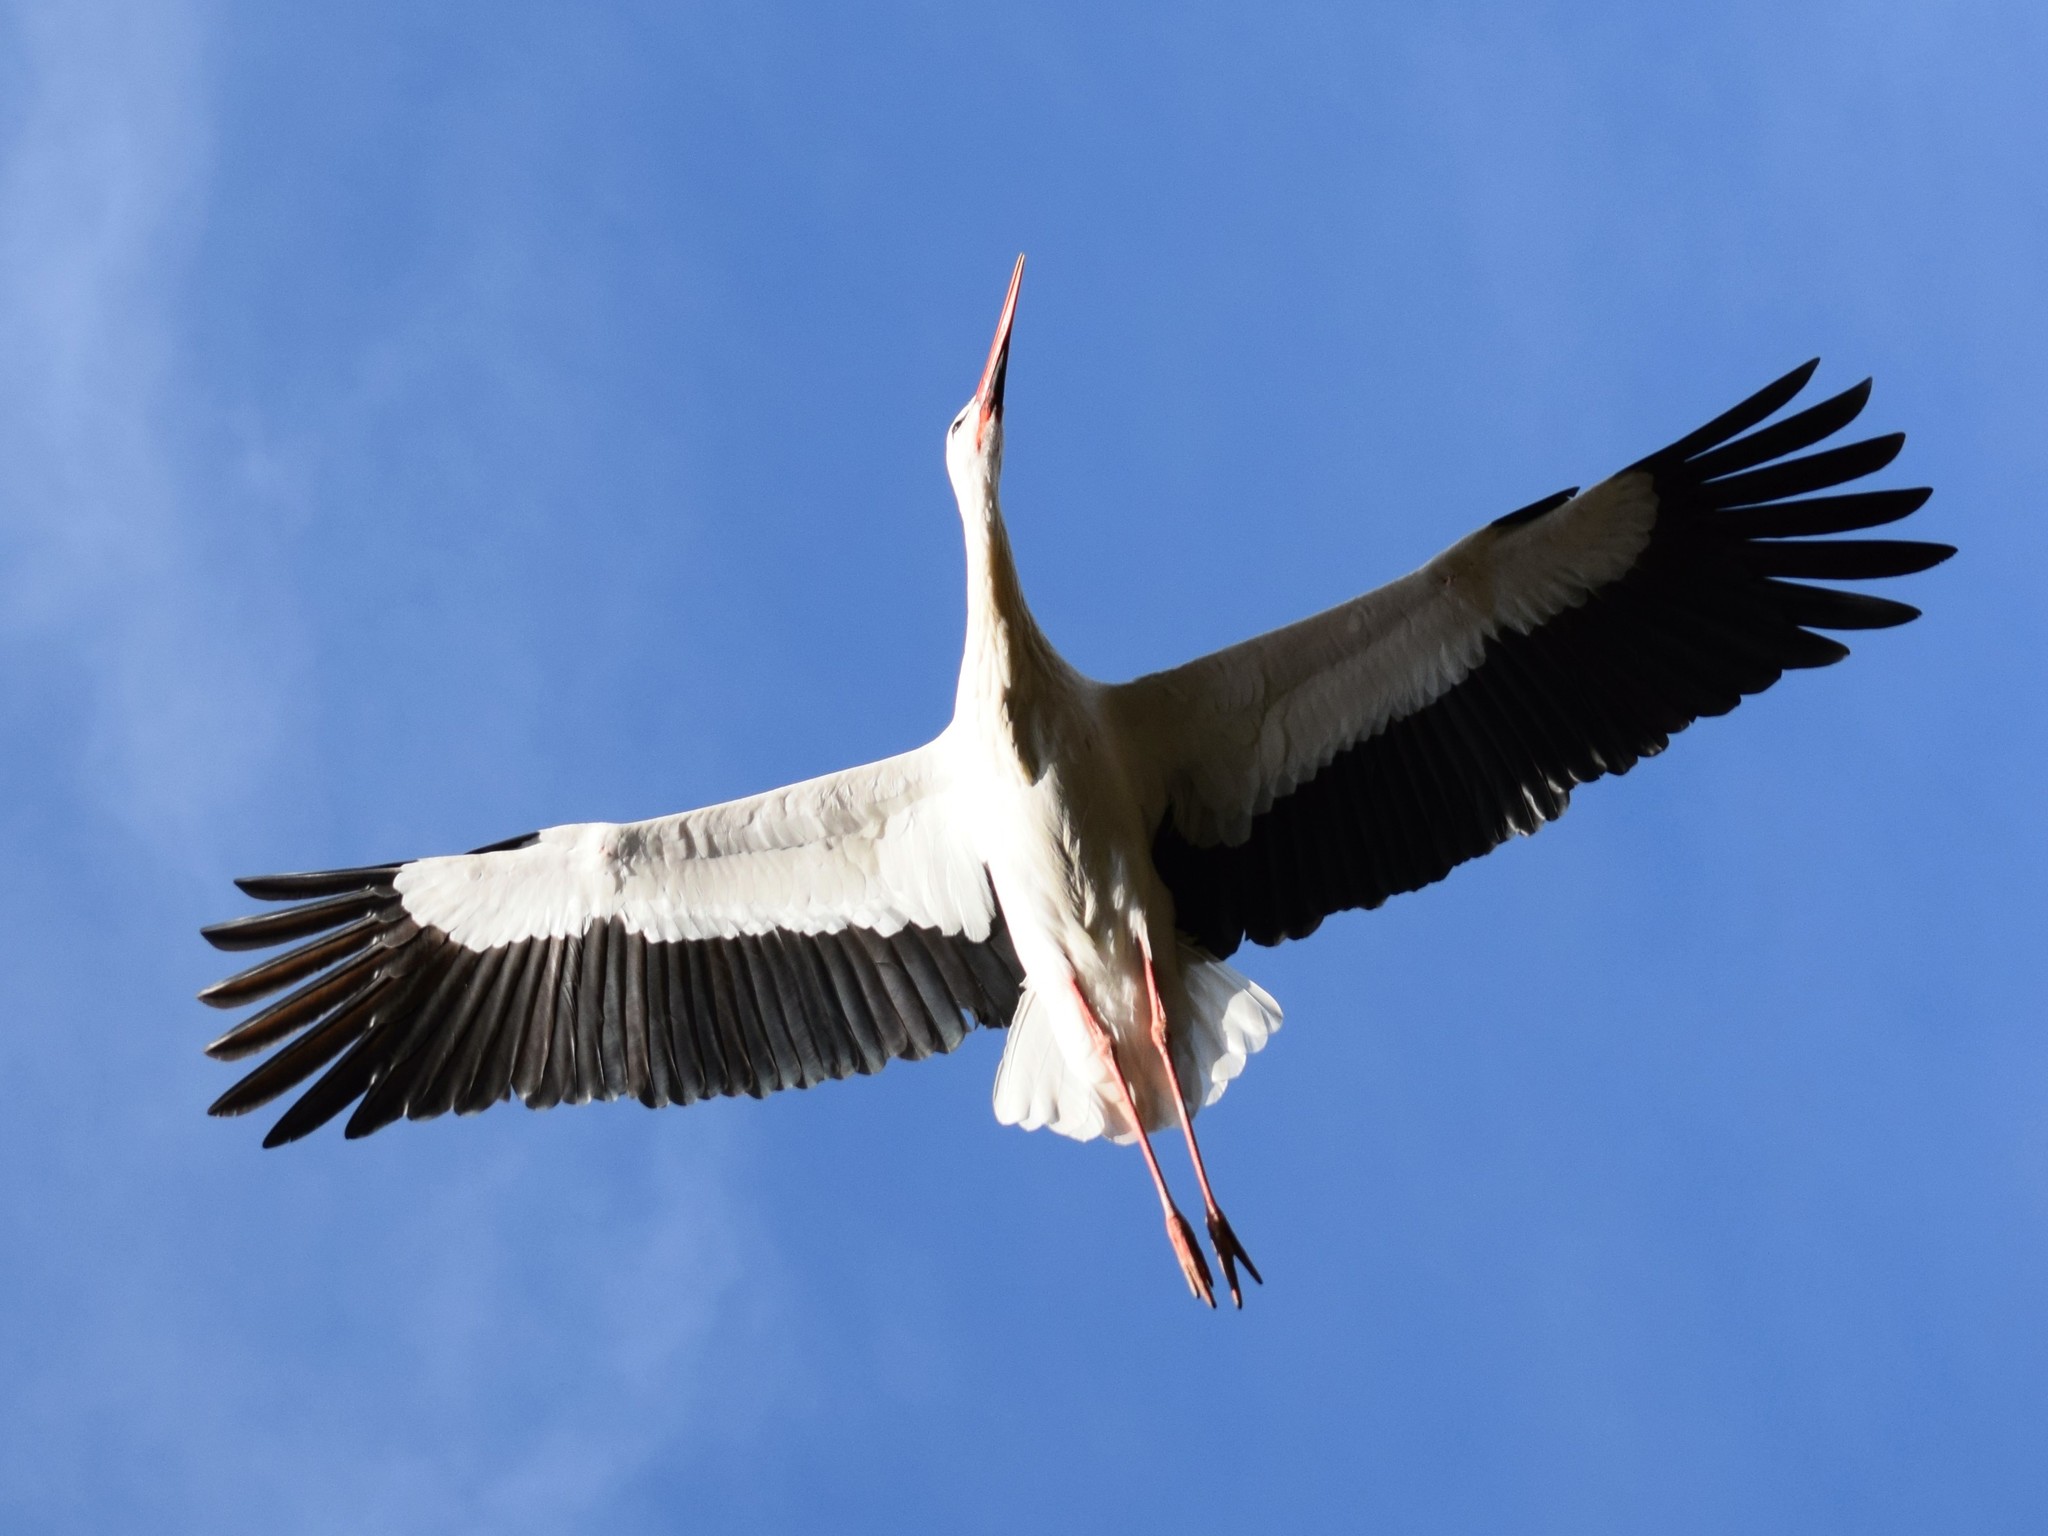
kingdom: Animalia
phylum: Chordata
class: Aves
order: Ciconiiformes
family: Ciconiidae
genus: Ciconia
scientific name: Ciconia ciconia
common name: White stork
